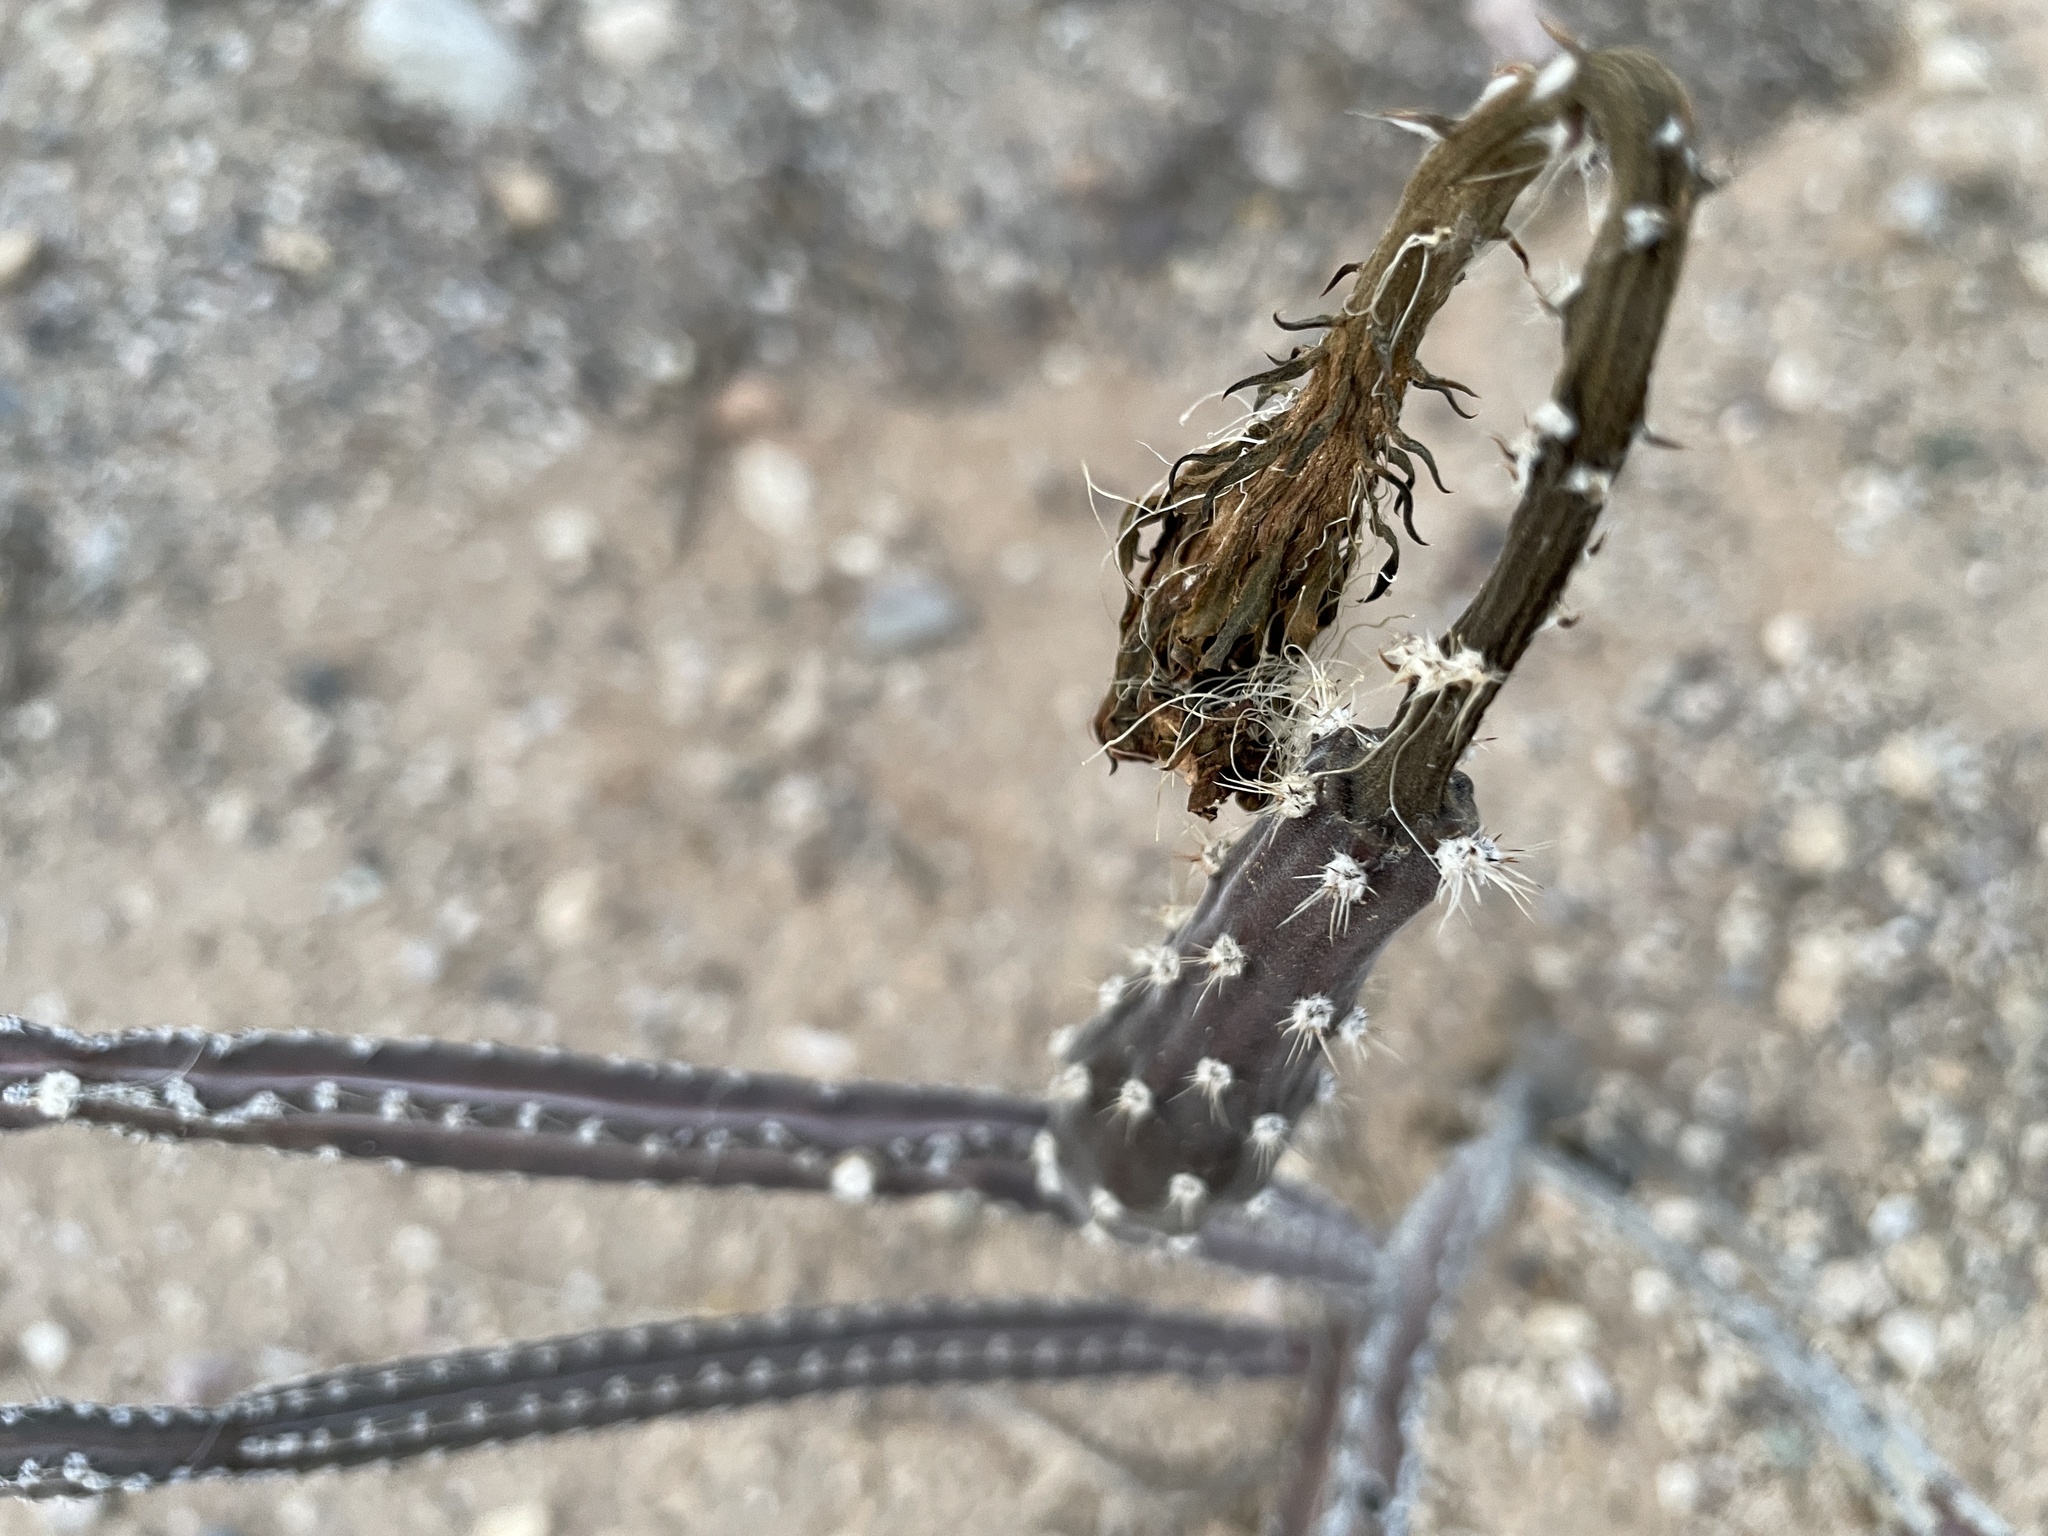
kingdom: Plantae
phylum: Tracheophyta
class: Magnoliopsida
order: Caryophyllales
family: Cactaceae
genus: Peniocereus
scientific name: Peniocereus greggii
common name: Desert night-blooming cereus
